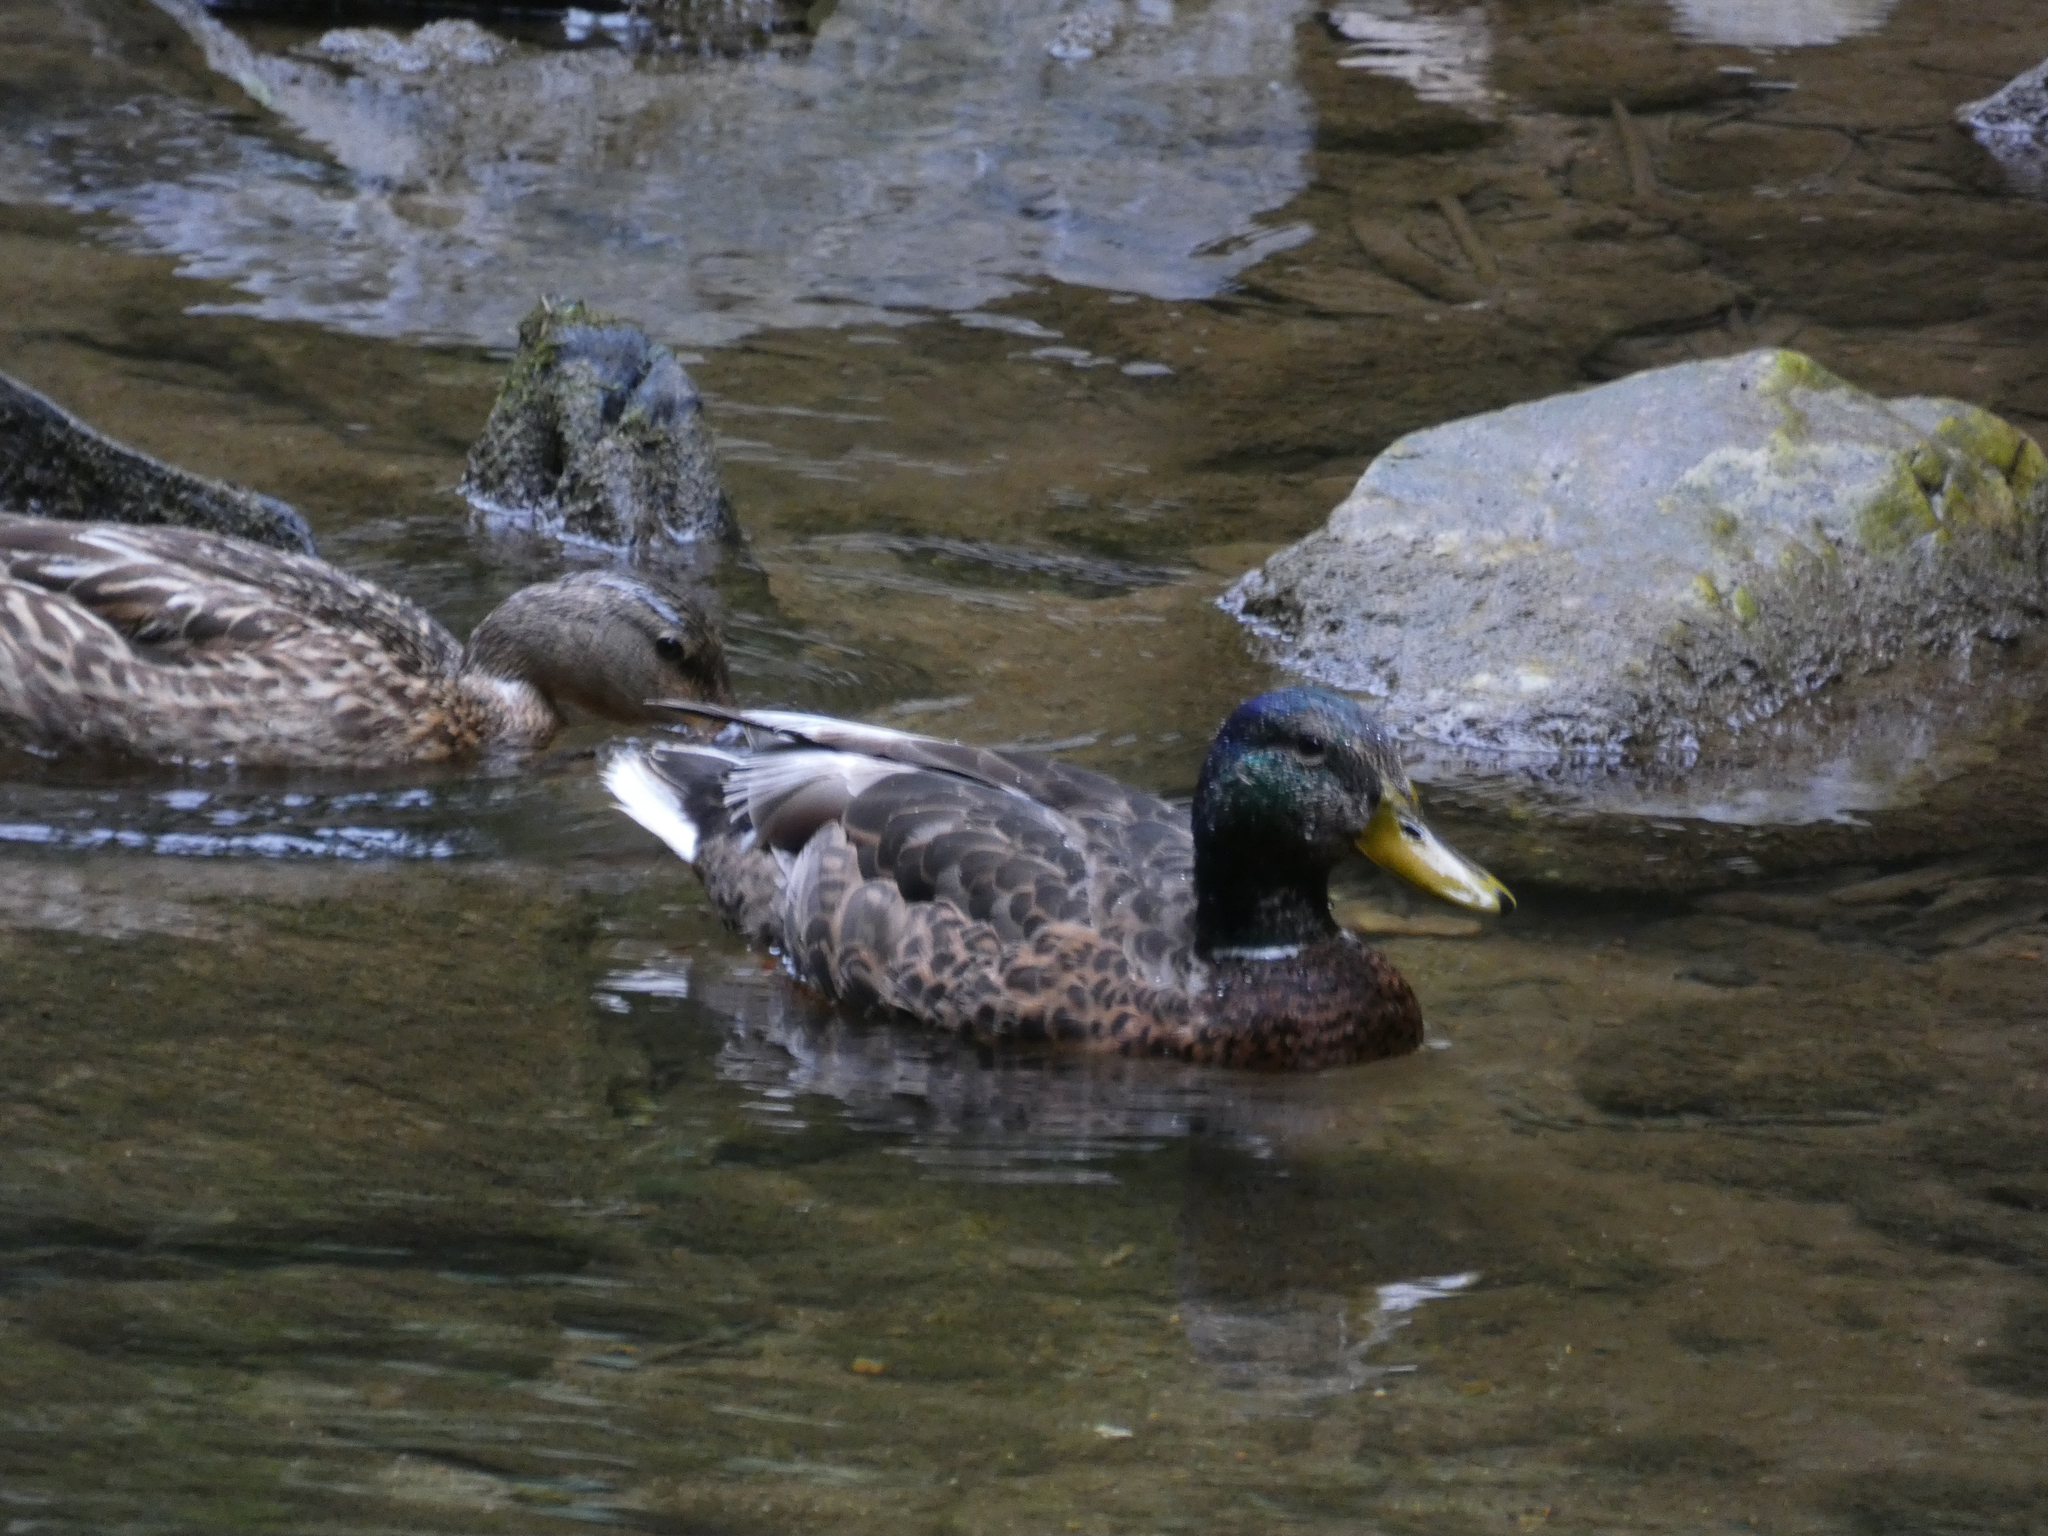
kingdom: Animalia
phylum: Chordata
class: Aves
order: Anseriformes
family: Anatidae
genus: Anas
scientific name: Anas platyrhynchos
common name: Mallard
